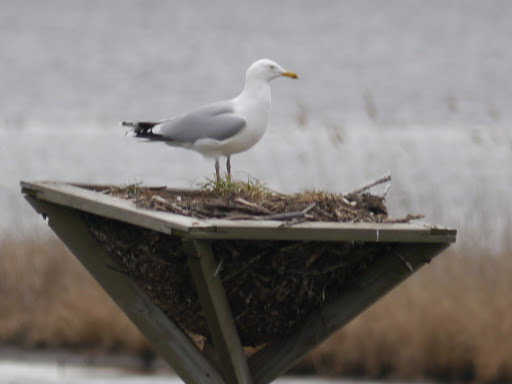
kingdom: Animalia
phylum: Chordata
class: Aves
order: Charadriiformes
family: Laridae
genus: Larus
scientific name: Larus argentatus
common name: Herring gull
